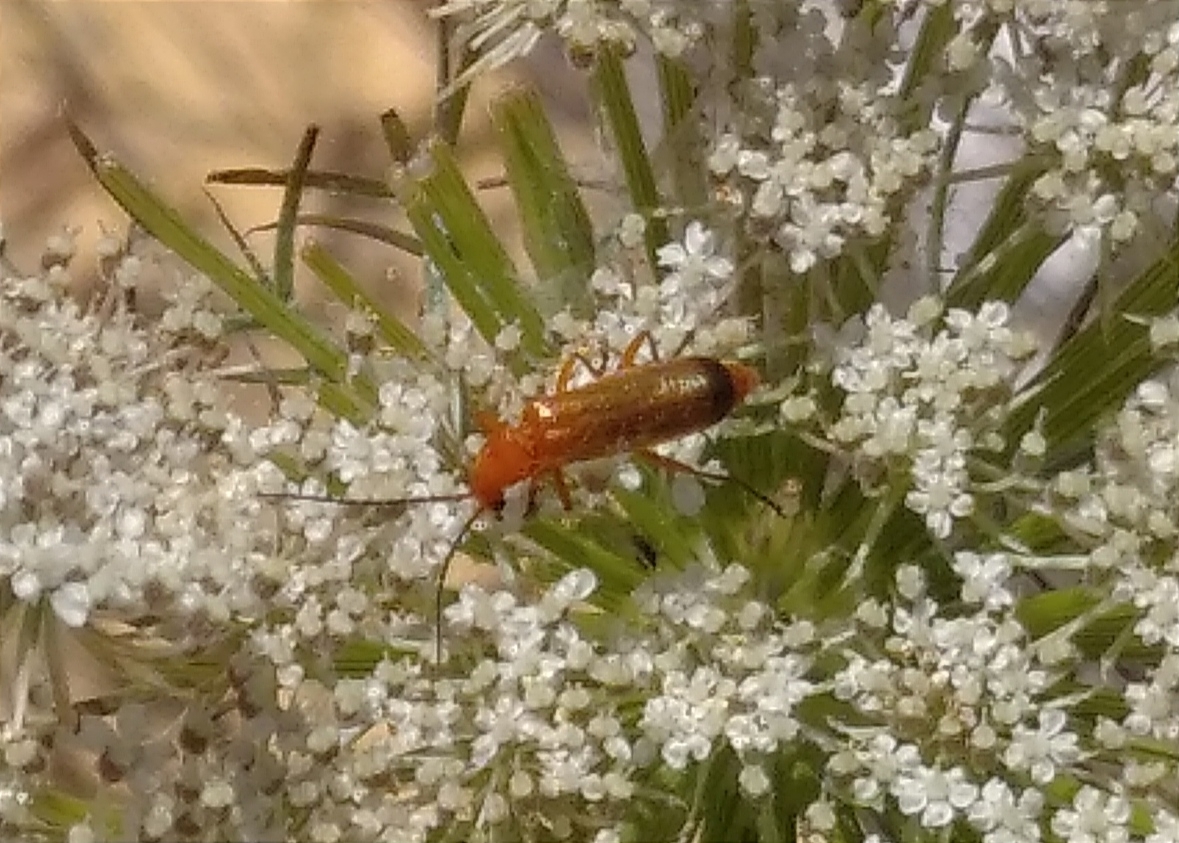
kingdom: Animalia
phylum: Arthropoda
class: Insecta
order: Coleoptera
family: Cantharidae
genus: Rhagonycha
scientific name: Rhagonycha fulva
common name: Common red soldier beetle
